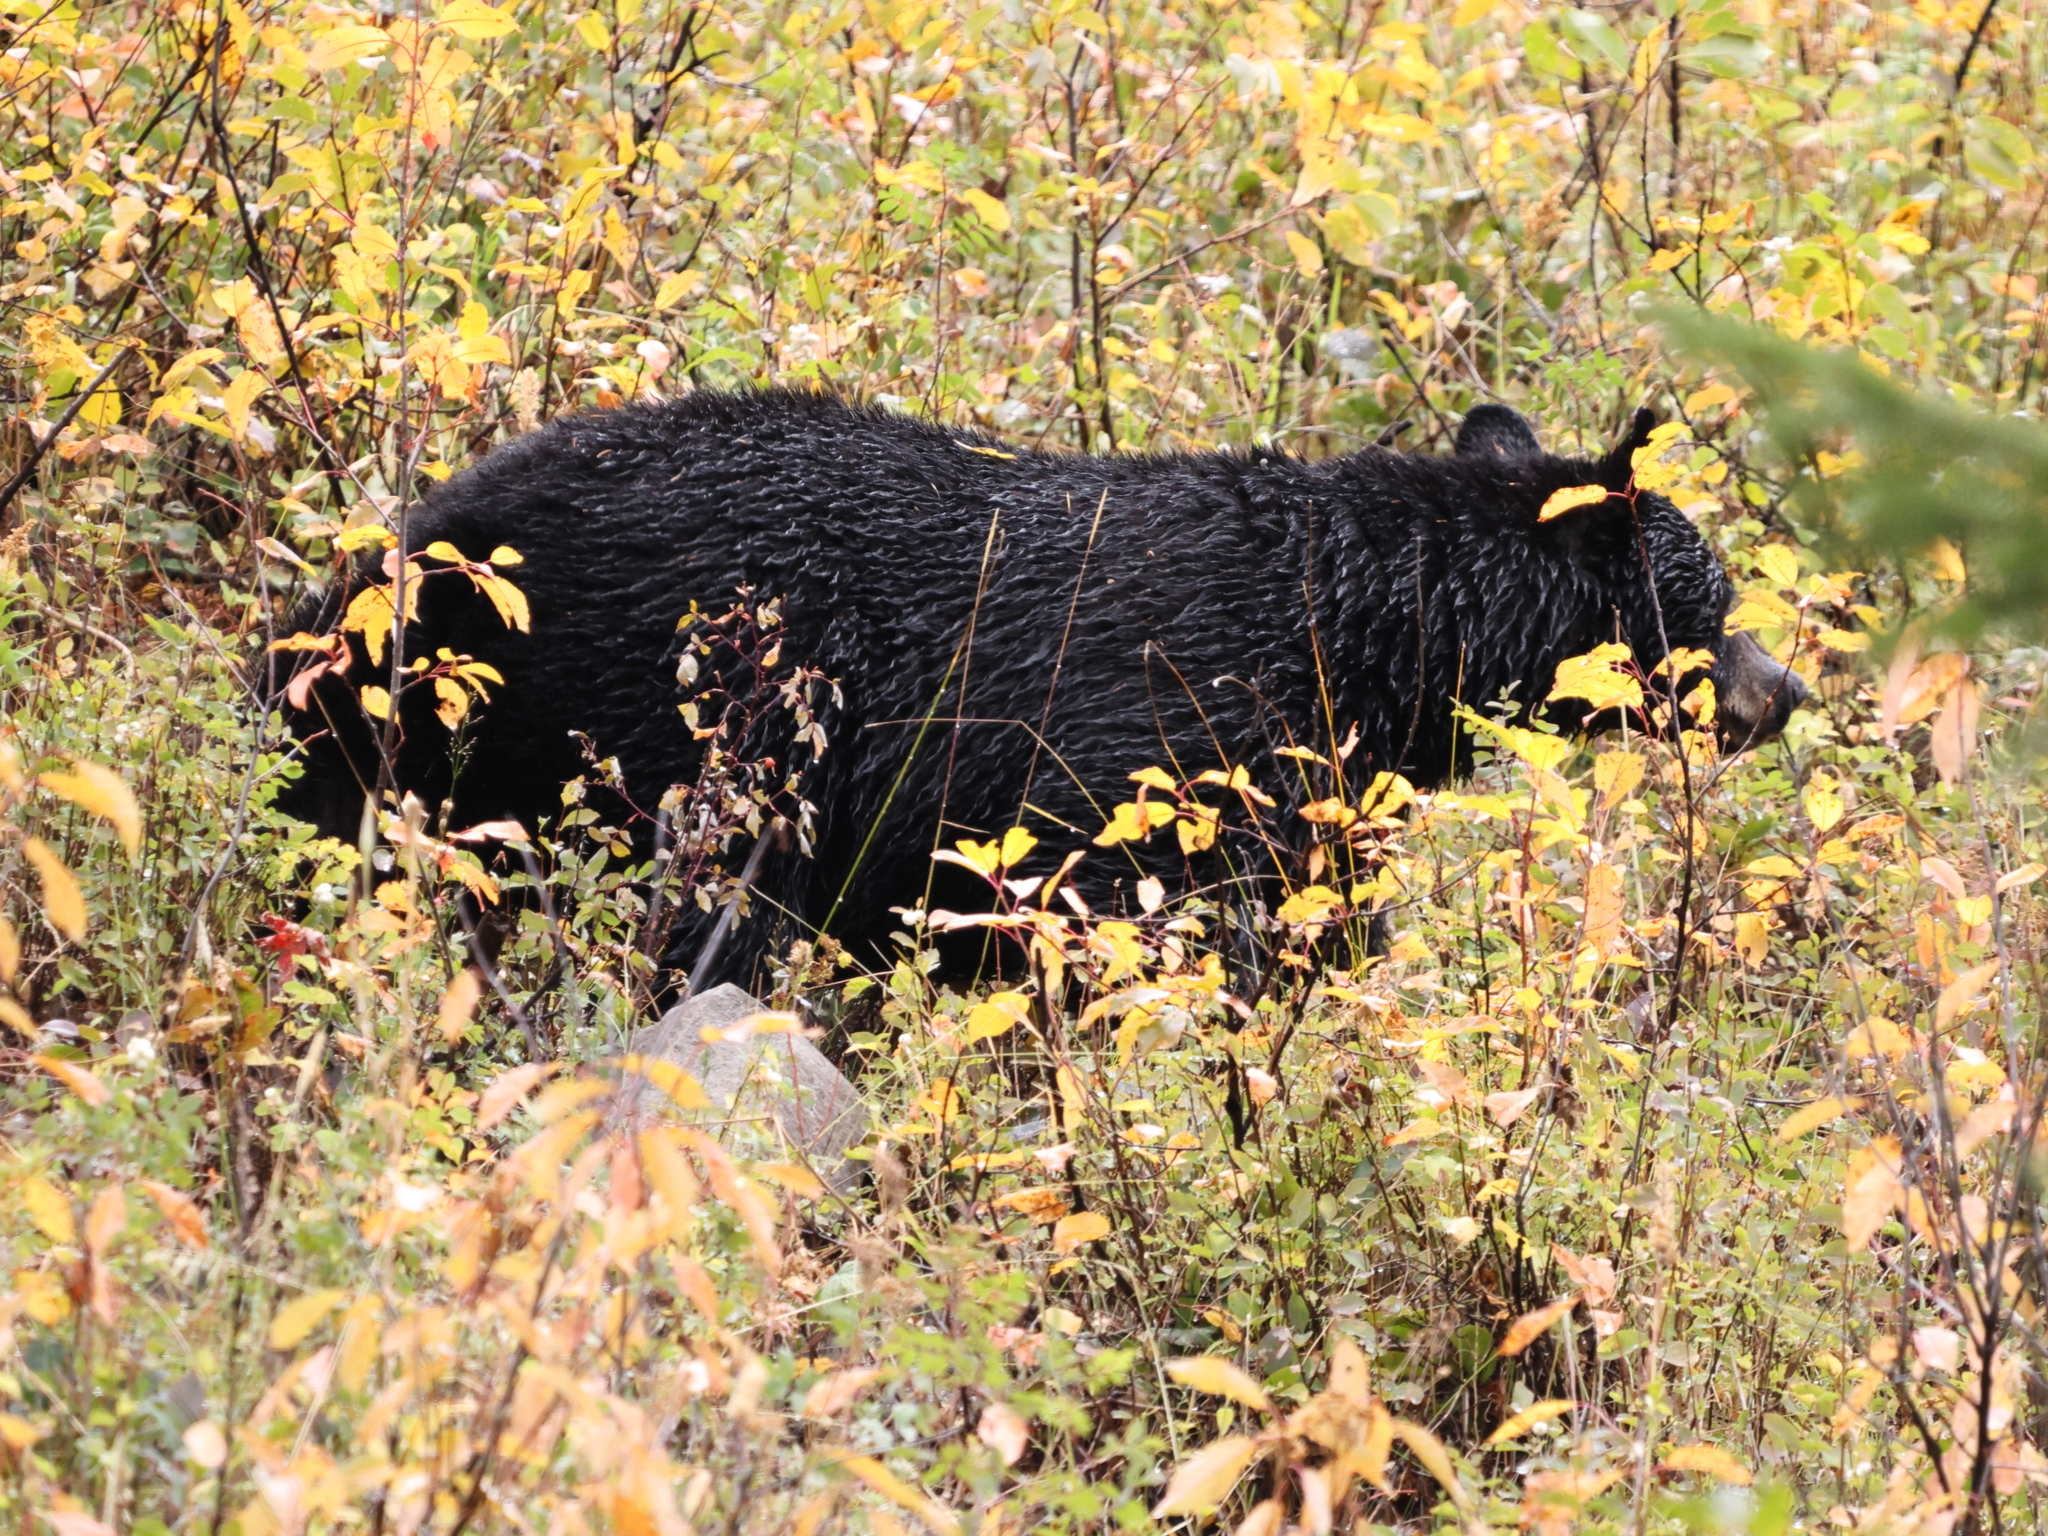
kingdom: Animalia
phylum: Chordata
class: Mammalia
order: Carnivora
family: Ursidae
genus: Ursus
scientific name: Ursus americanus
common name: American black bear
